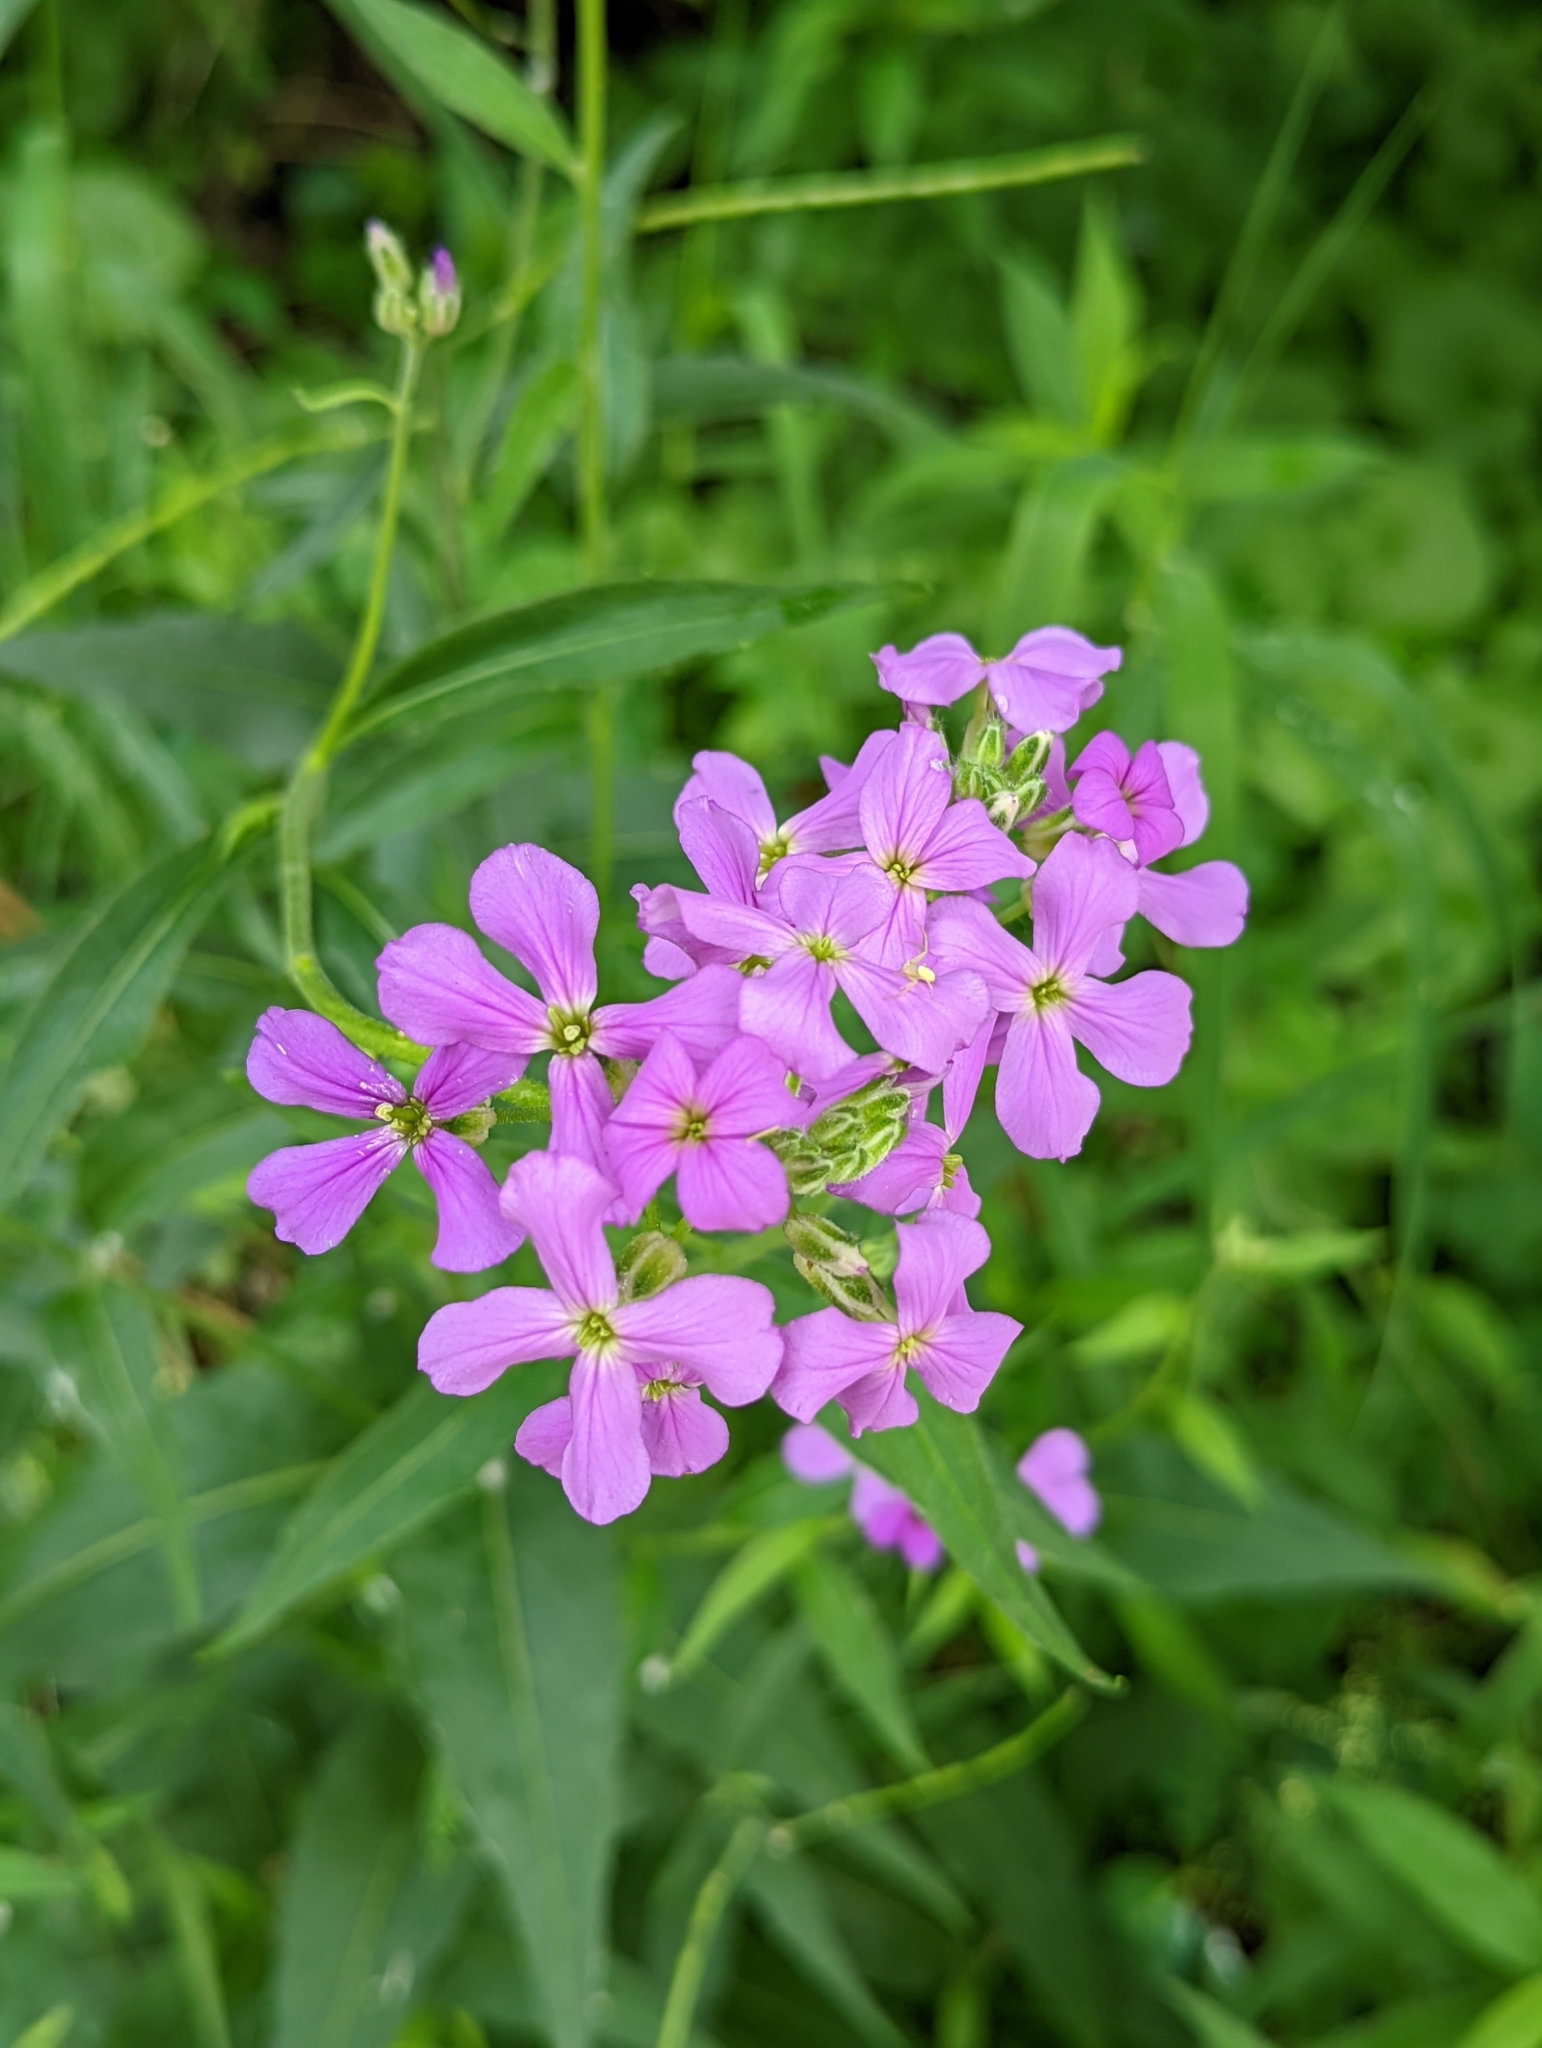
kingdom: Plantae
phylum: Tracheophyta
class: Magnoliopsida
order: Brassicales
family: Brassicaceae
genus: Hesperis
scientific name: Hesperis matronalis
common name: Dame's-violet
